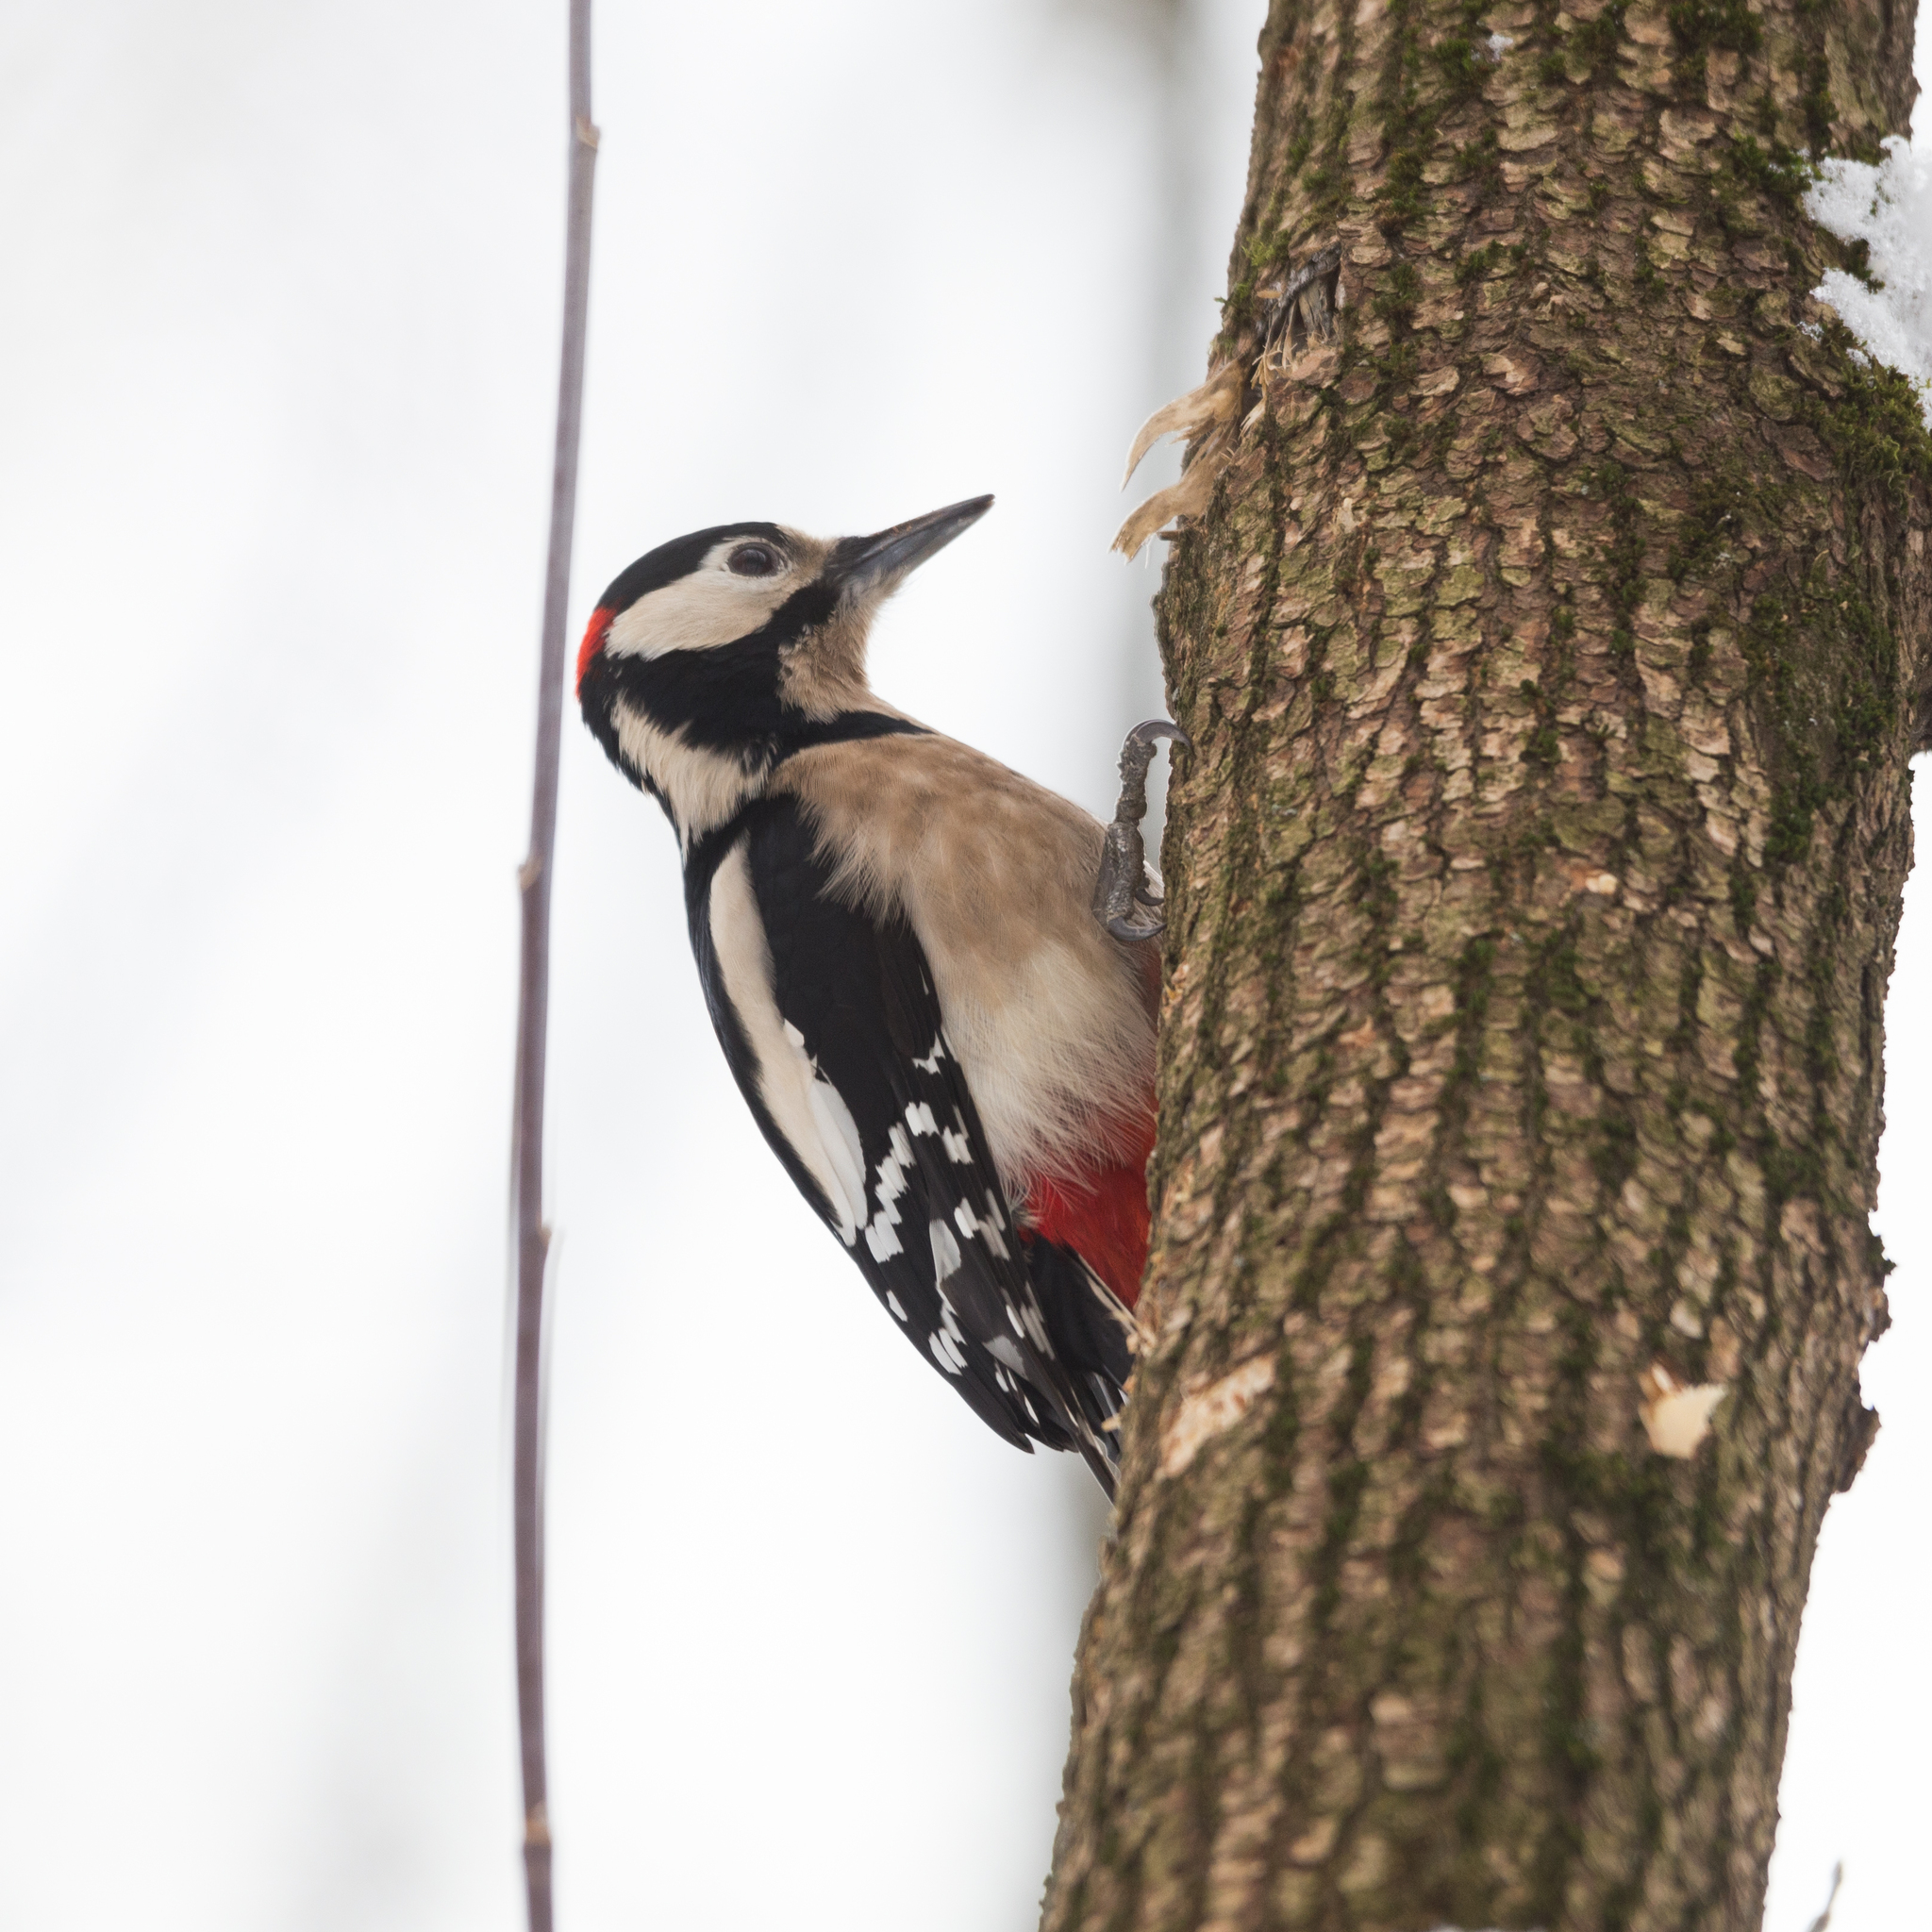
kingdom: Animalia
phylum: Chordata
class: Aves
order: Piciformes
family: Picidae
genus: Dendrocopos
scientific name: Dendrocopos major
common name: Great spotted woodpecker
